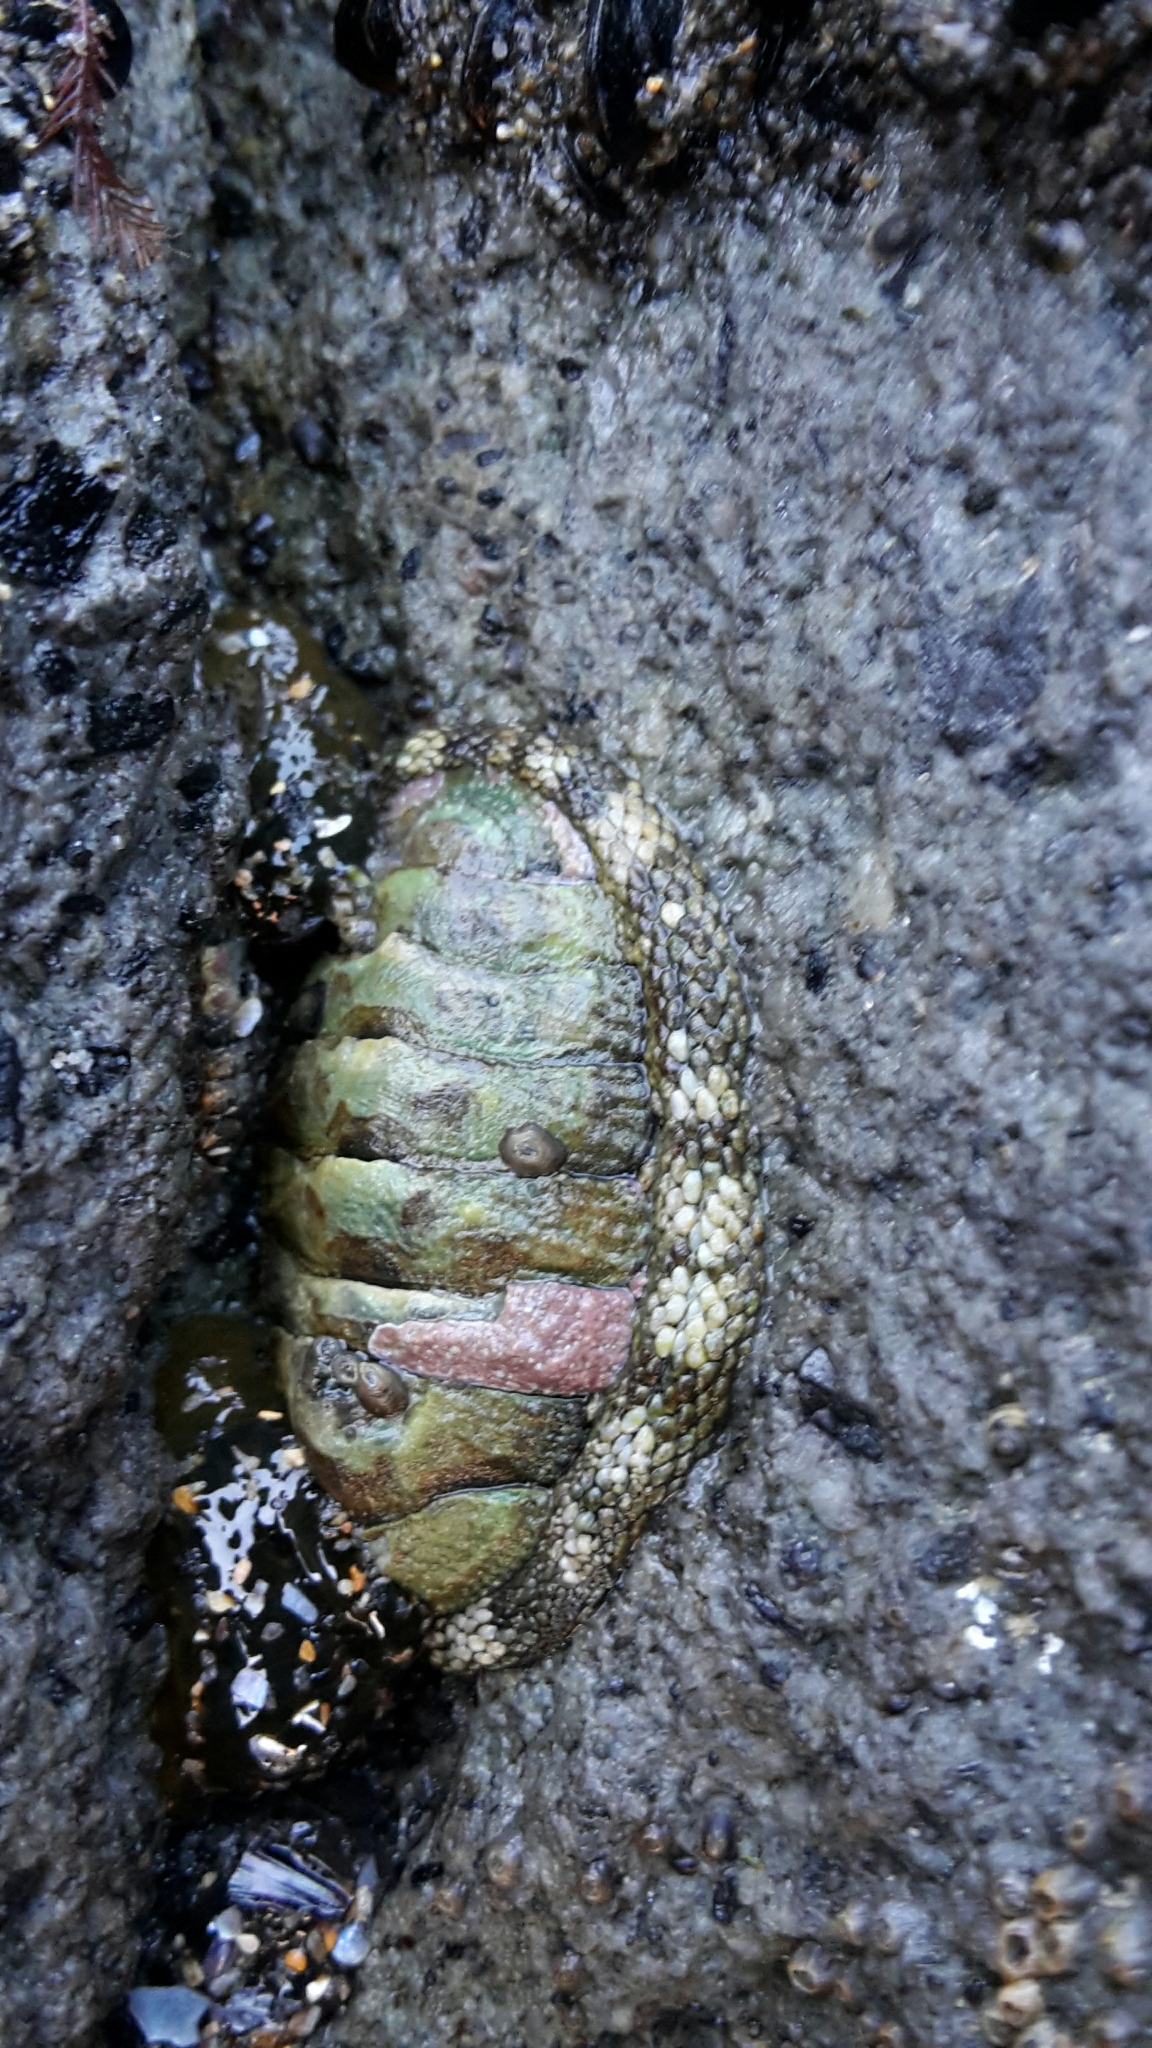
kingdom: Animalia
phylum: Mollusca
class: Polyplacophora
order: Chitonida
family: Chitonidae
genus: Sypharochiton
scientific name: Sypharochiton pelliserpentis
